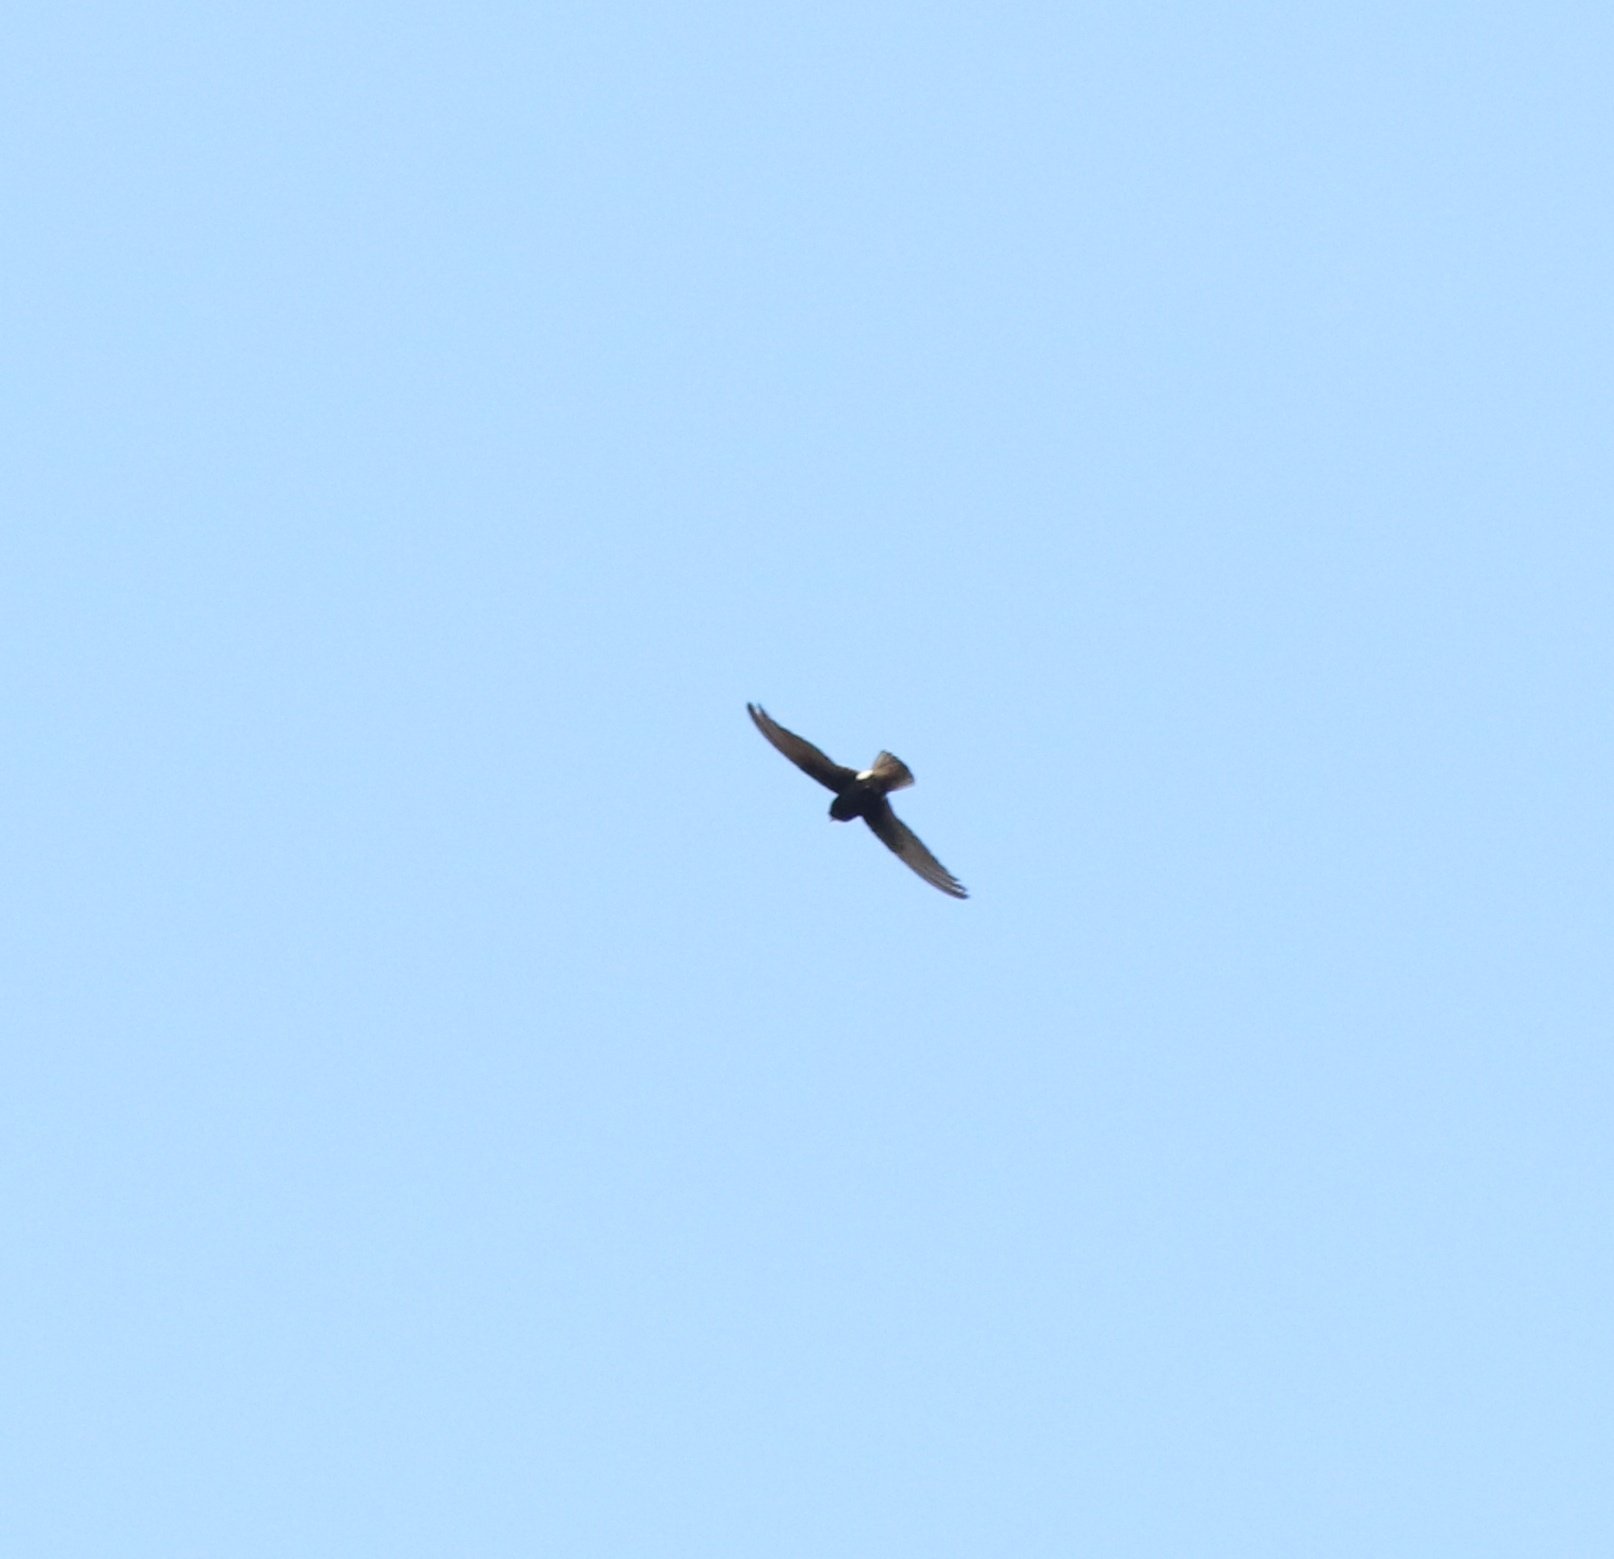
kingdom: Animalia
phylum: Chordata
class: Aves
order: Apodiformes
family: Apodidae
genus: Apus
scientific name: Apus affinis
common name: Little swift
